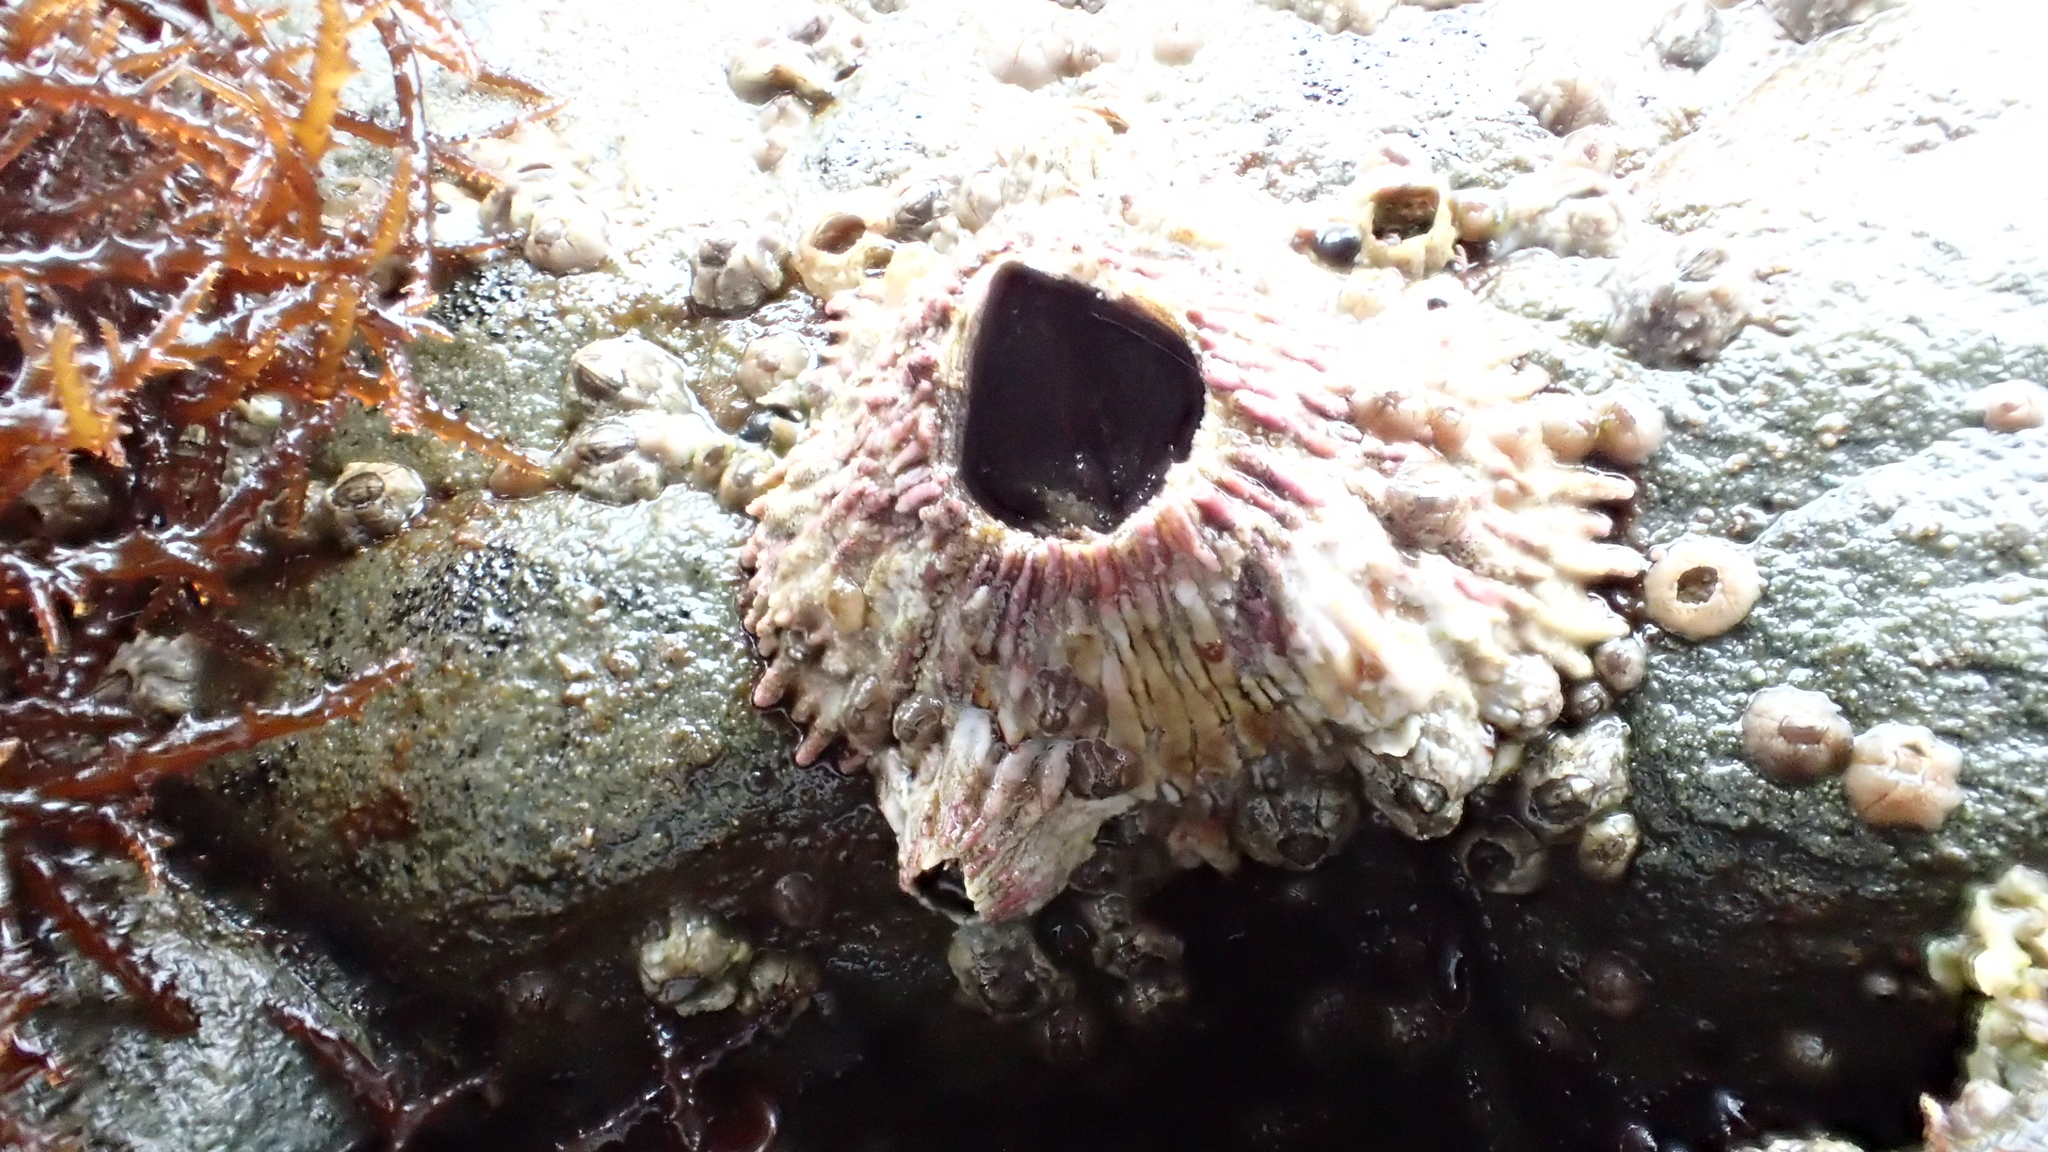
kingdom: Animalia
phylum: Arthropoda
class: Maxillopoda
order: Sessilia
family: Tetraclitidae
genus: Tetraclita
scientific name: Tetraclita rubescens
